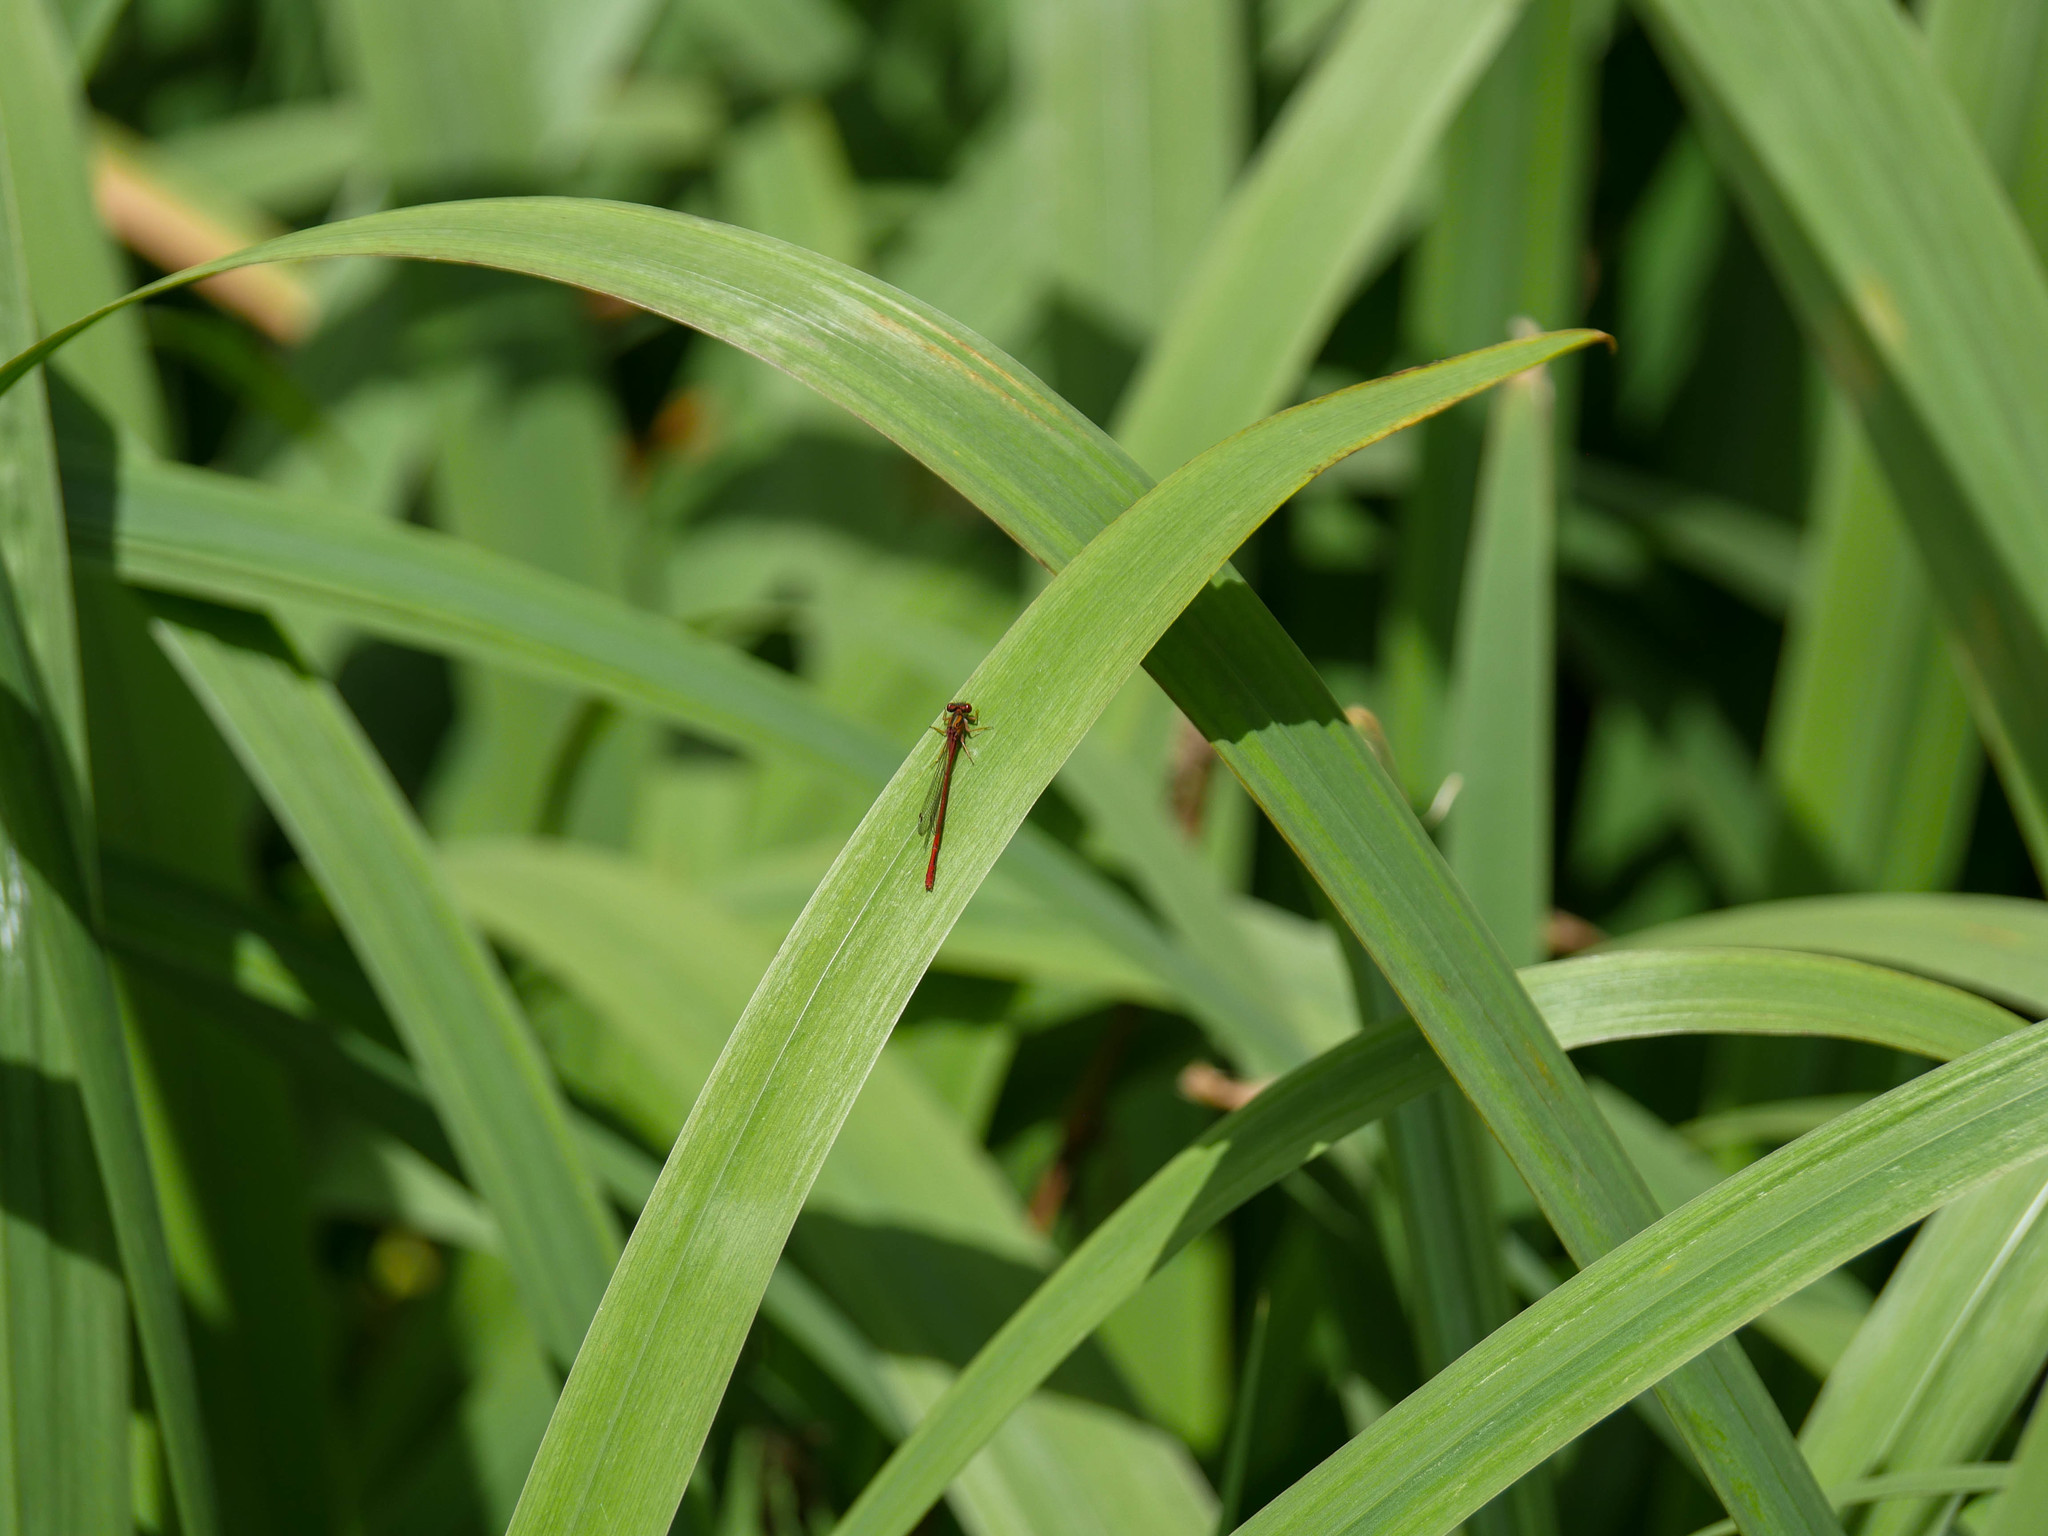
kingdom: Animalia
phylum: Arthropoda
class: Insecta
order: Odonata
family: Coenagrionidae
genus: Xanthocnemis
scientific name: Xanthocnemis zealandica
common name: Common redcoat damselfly
